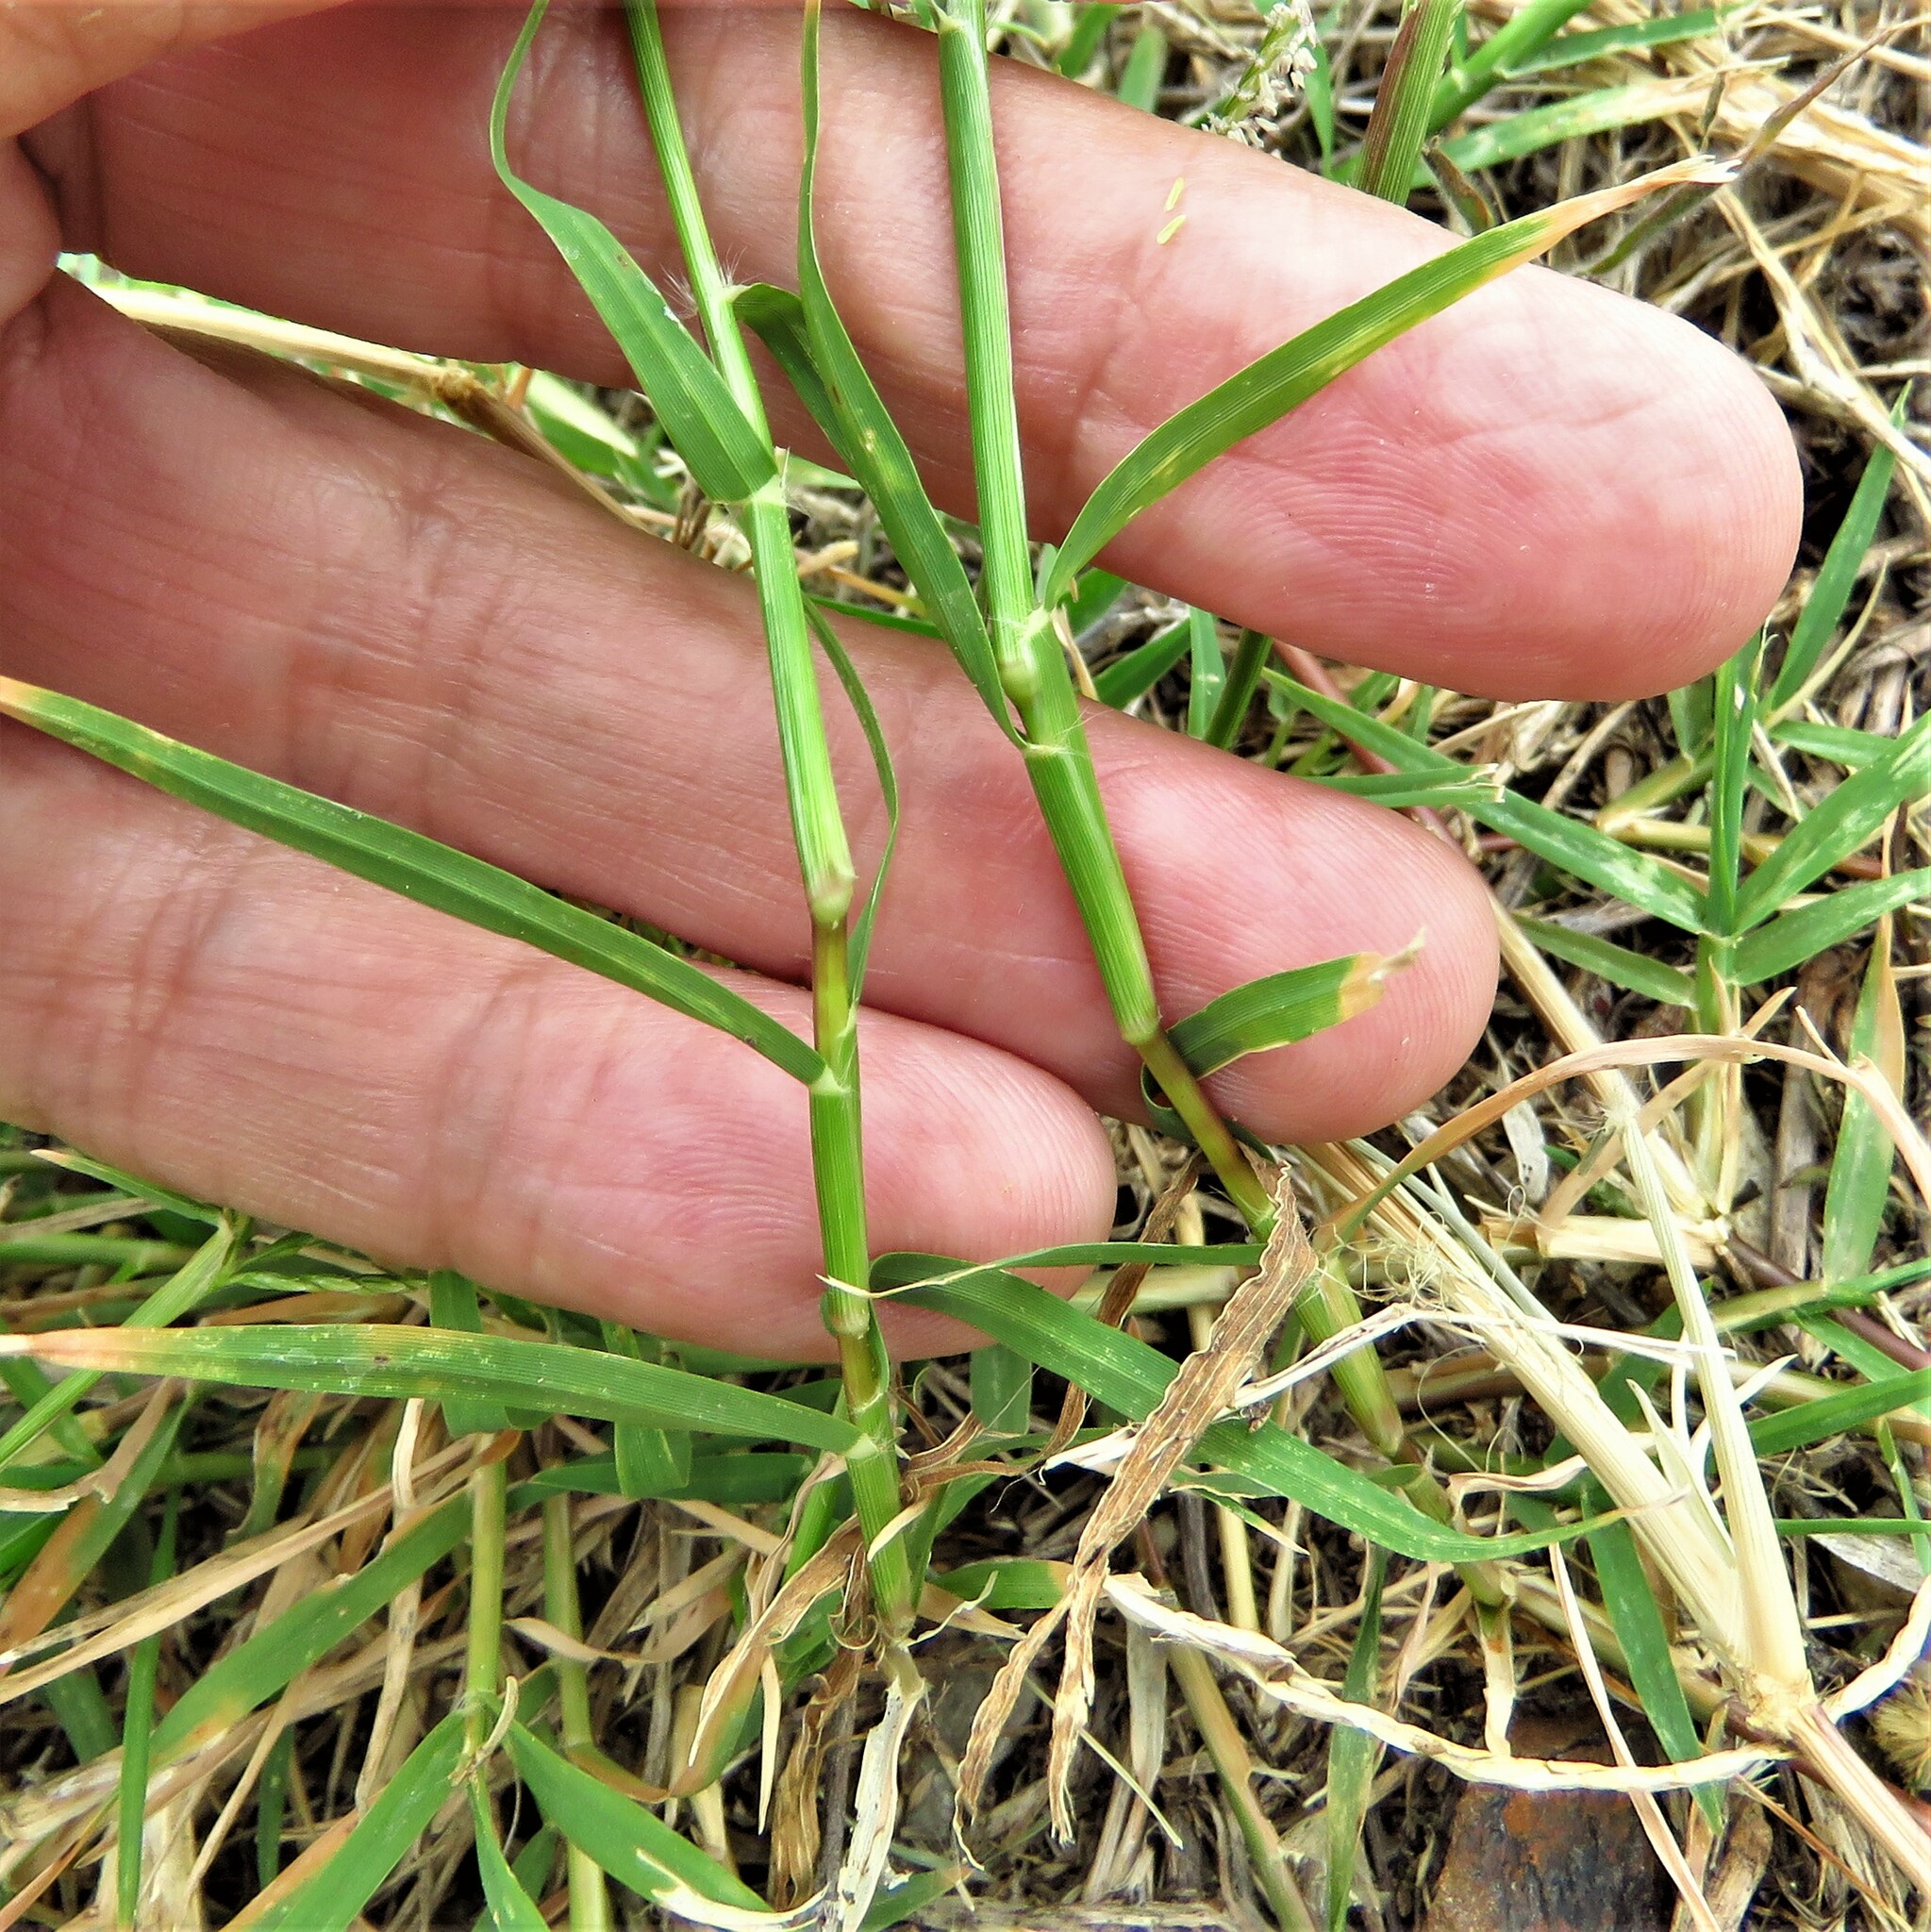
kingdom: Plantae
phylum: Tracheophyta
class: Liliopsida
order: Poales
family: Poaceae
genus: Cynodon
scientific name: Cynodon dactylon
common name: Bermuda grass
